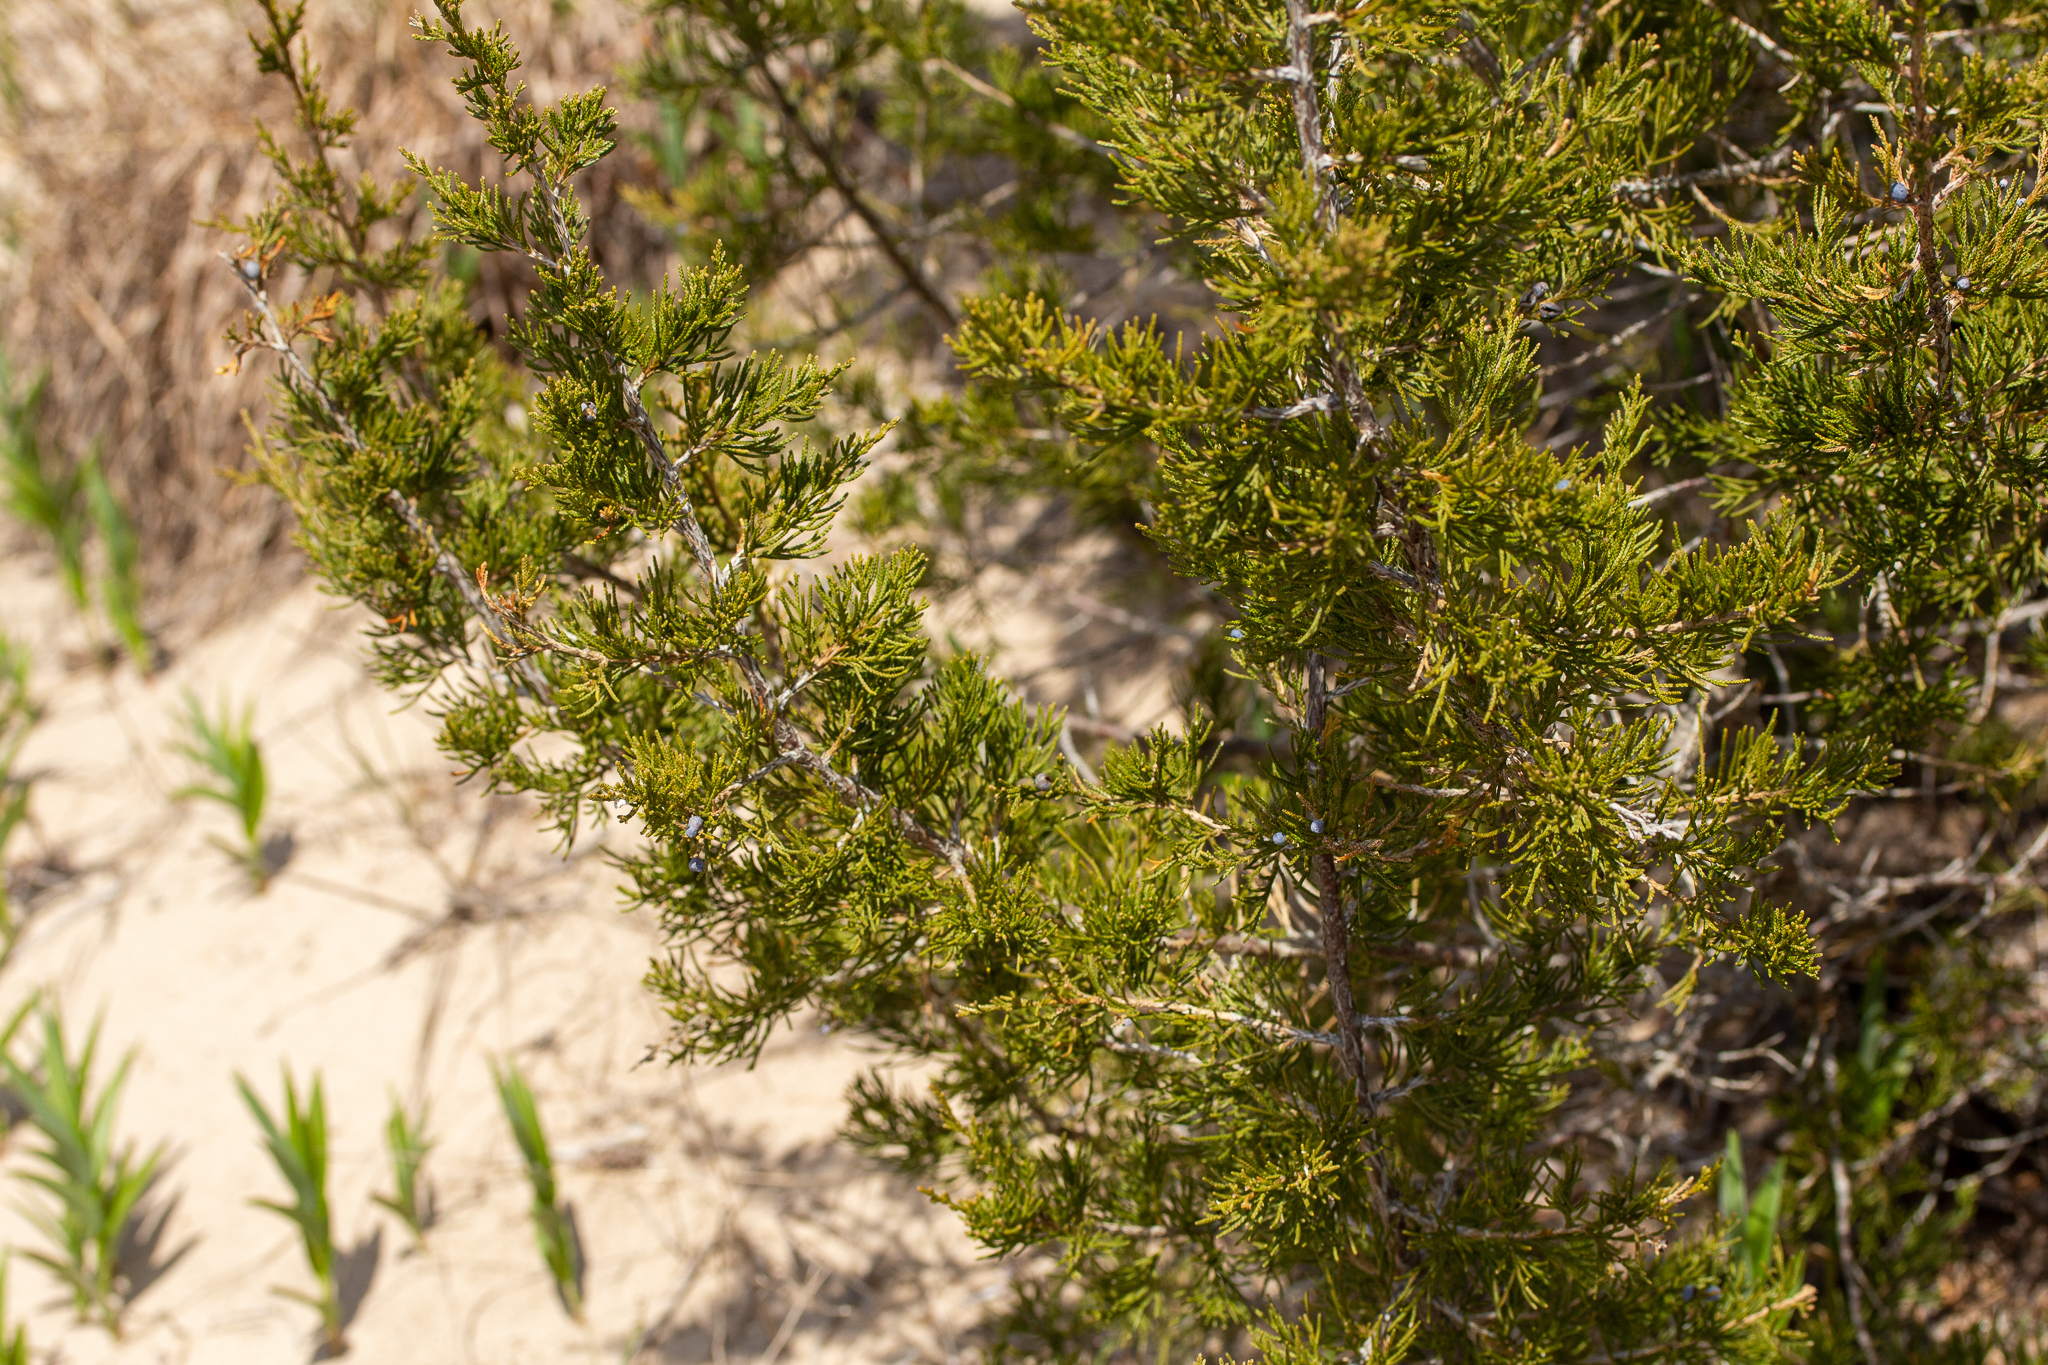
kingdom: Plantae
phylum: Tracheophyta
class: Pinopsida
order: Pinales
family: Cupressaceae
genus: Juniperus
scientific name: Juniperus virginiana
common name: Red juniper
